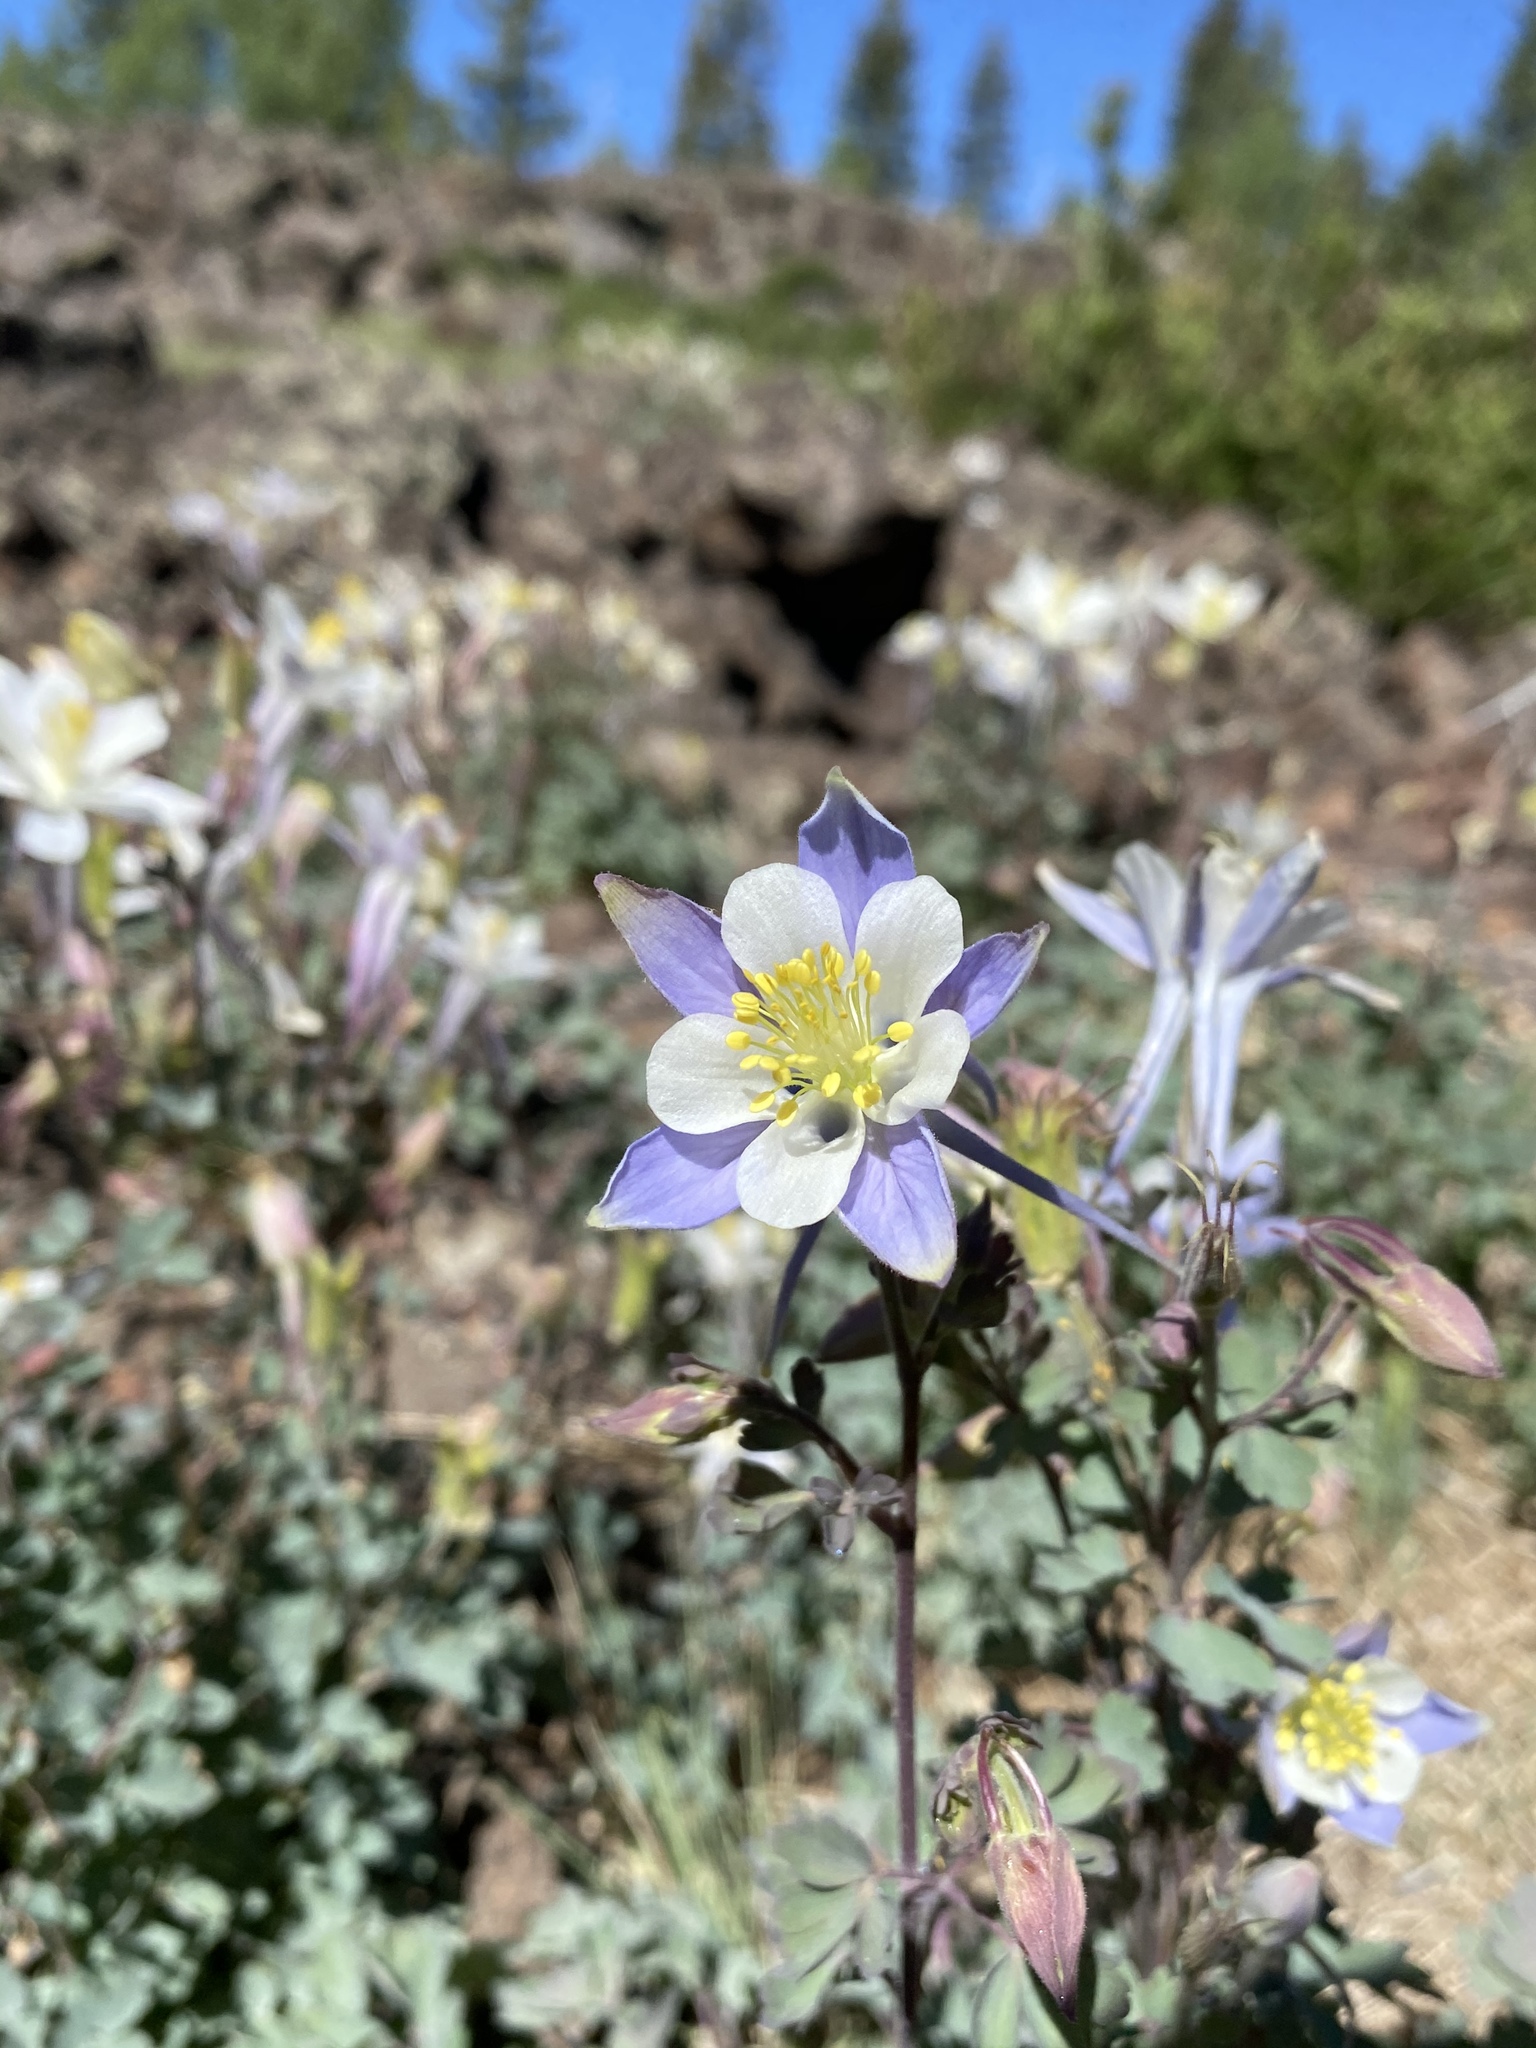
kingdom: Plantae
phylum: Tracheophyta
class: Magnoliopsida
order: Ranunculales
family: Ranunculaceae
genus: Aquilegia
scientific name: Aquilegia coerulea
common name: Rocky mountain columbine
